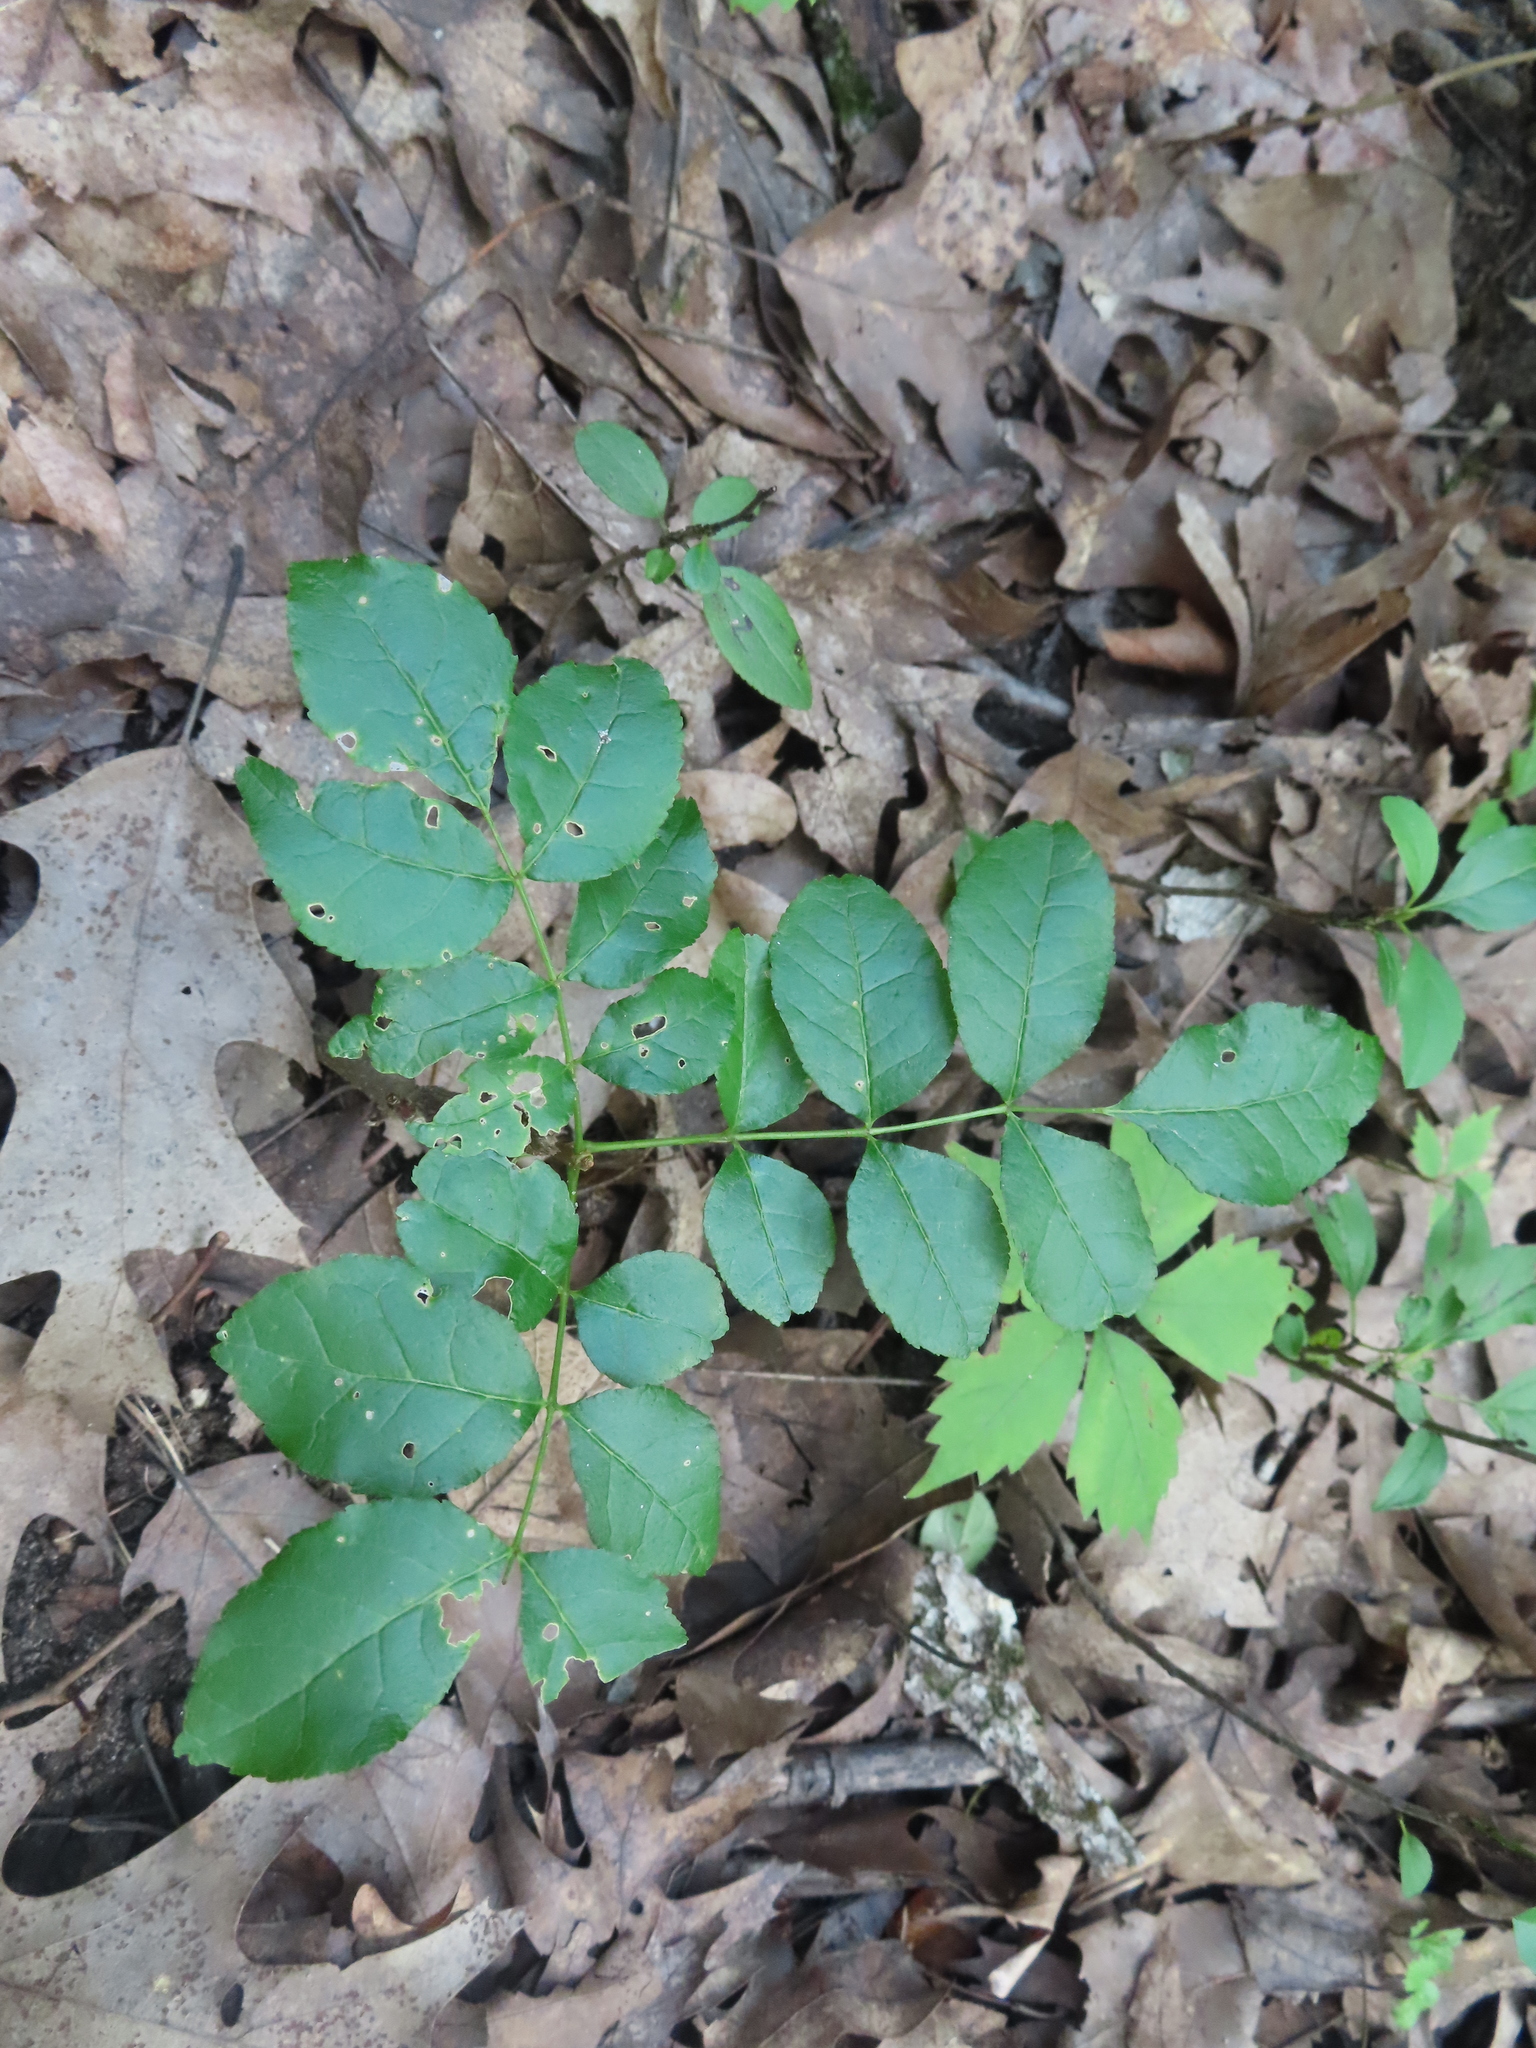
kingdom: Plantae
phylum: Tracheophyta
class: Magnoliopsida
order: Sapindales
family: Rutaceae
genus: Zanthoxylum
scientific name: Zanthoxylum americanum
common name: Northern prickly-ash
